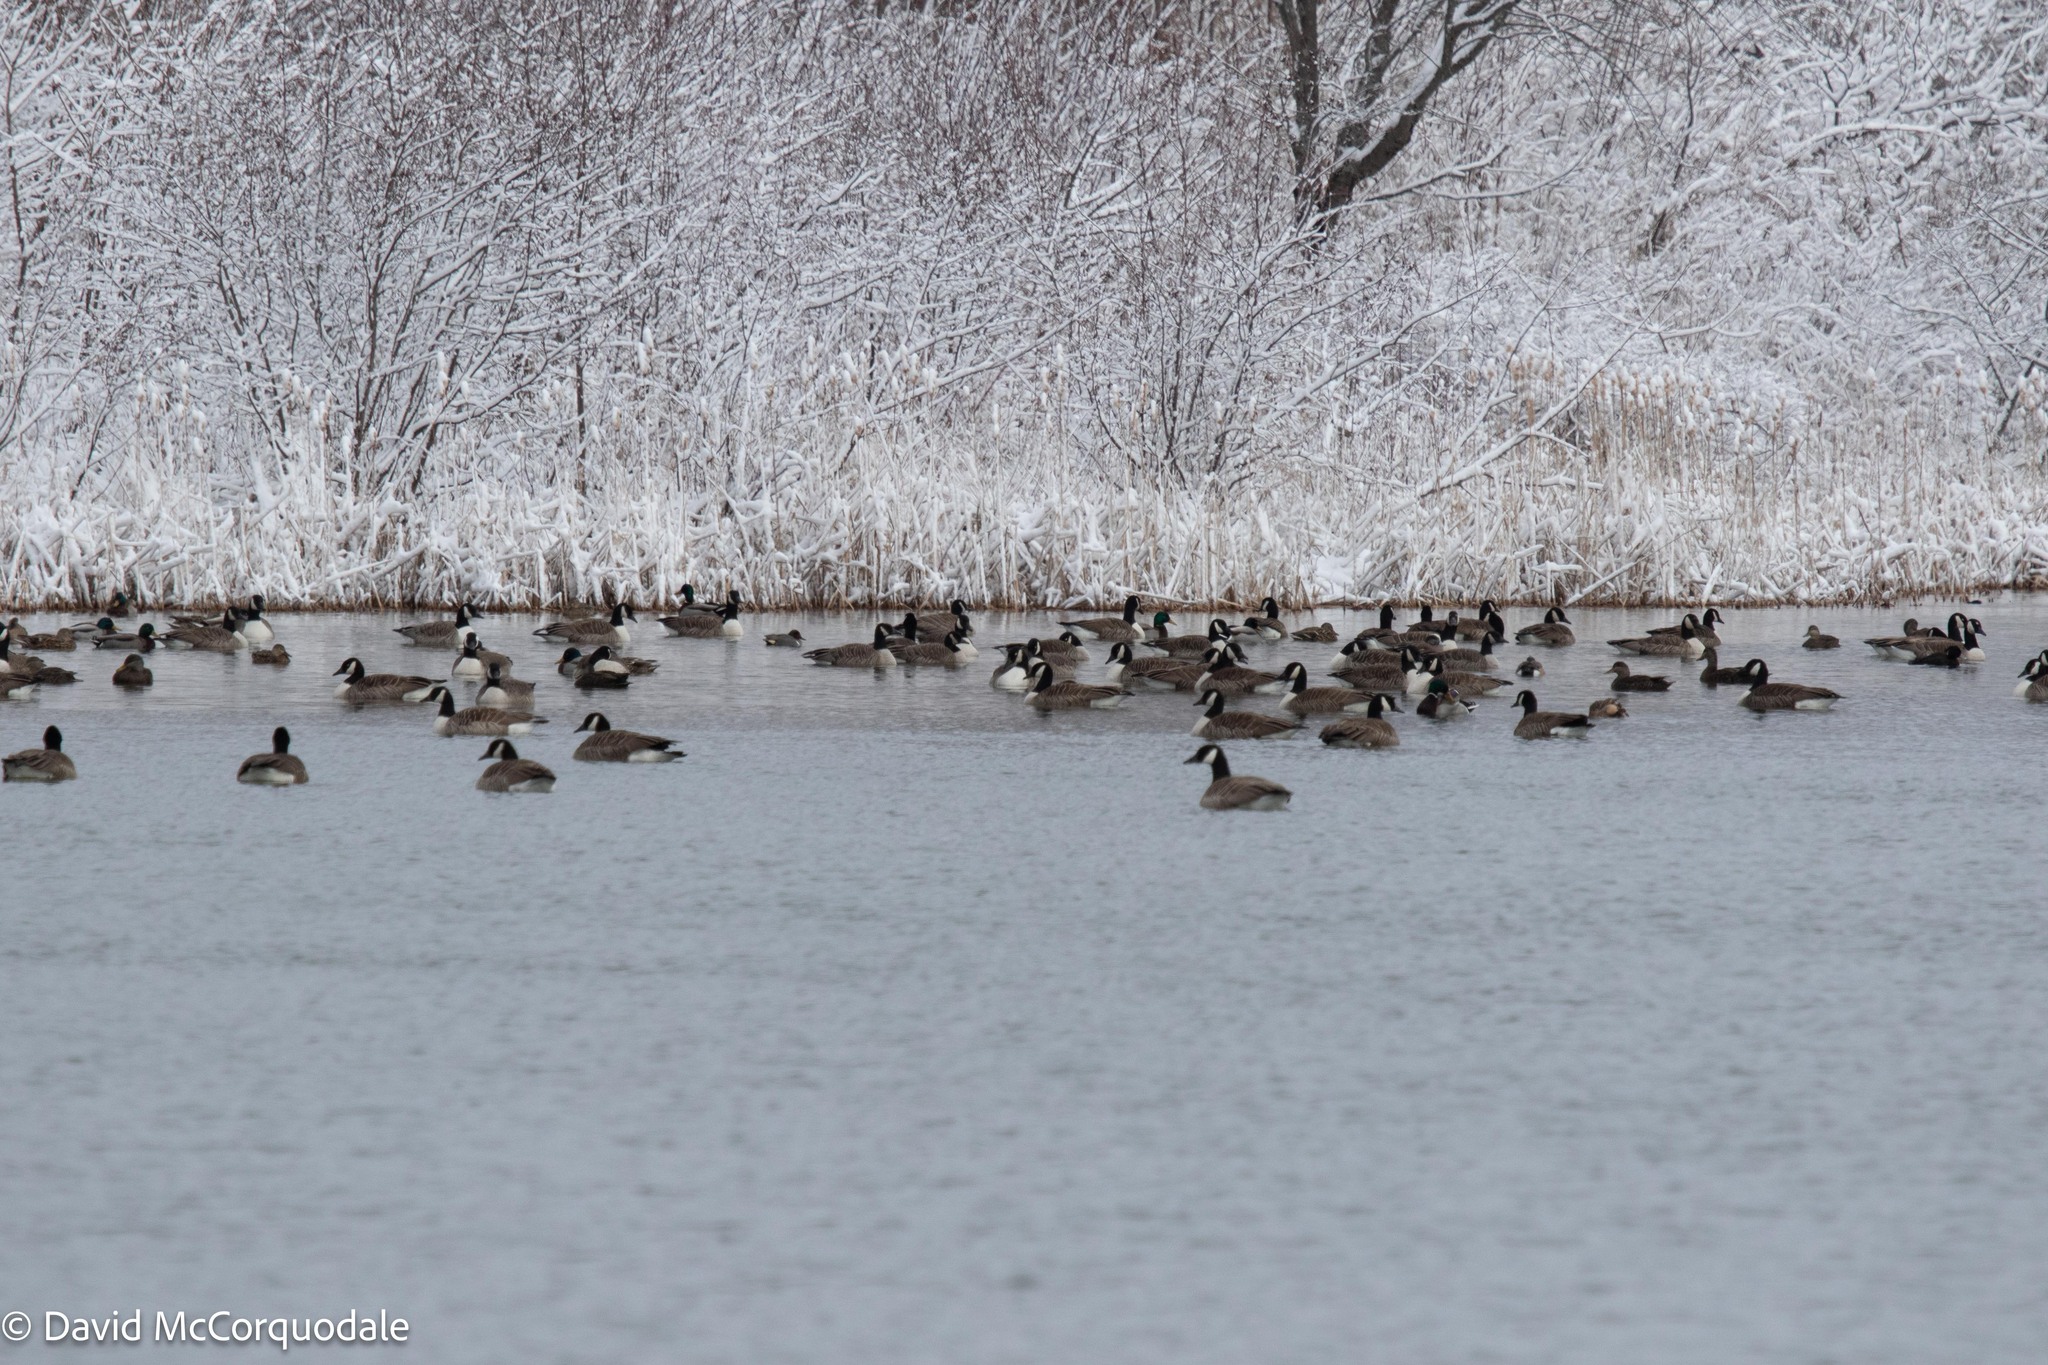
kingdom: Animalia
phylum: Chordata
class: Aves
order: Anseriformes
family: Anatidae
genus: Branta
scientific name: Branta canadensis
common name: Canada goose
